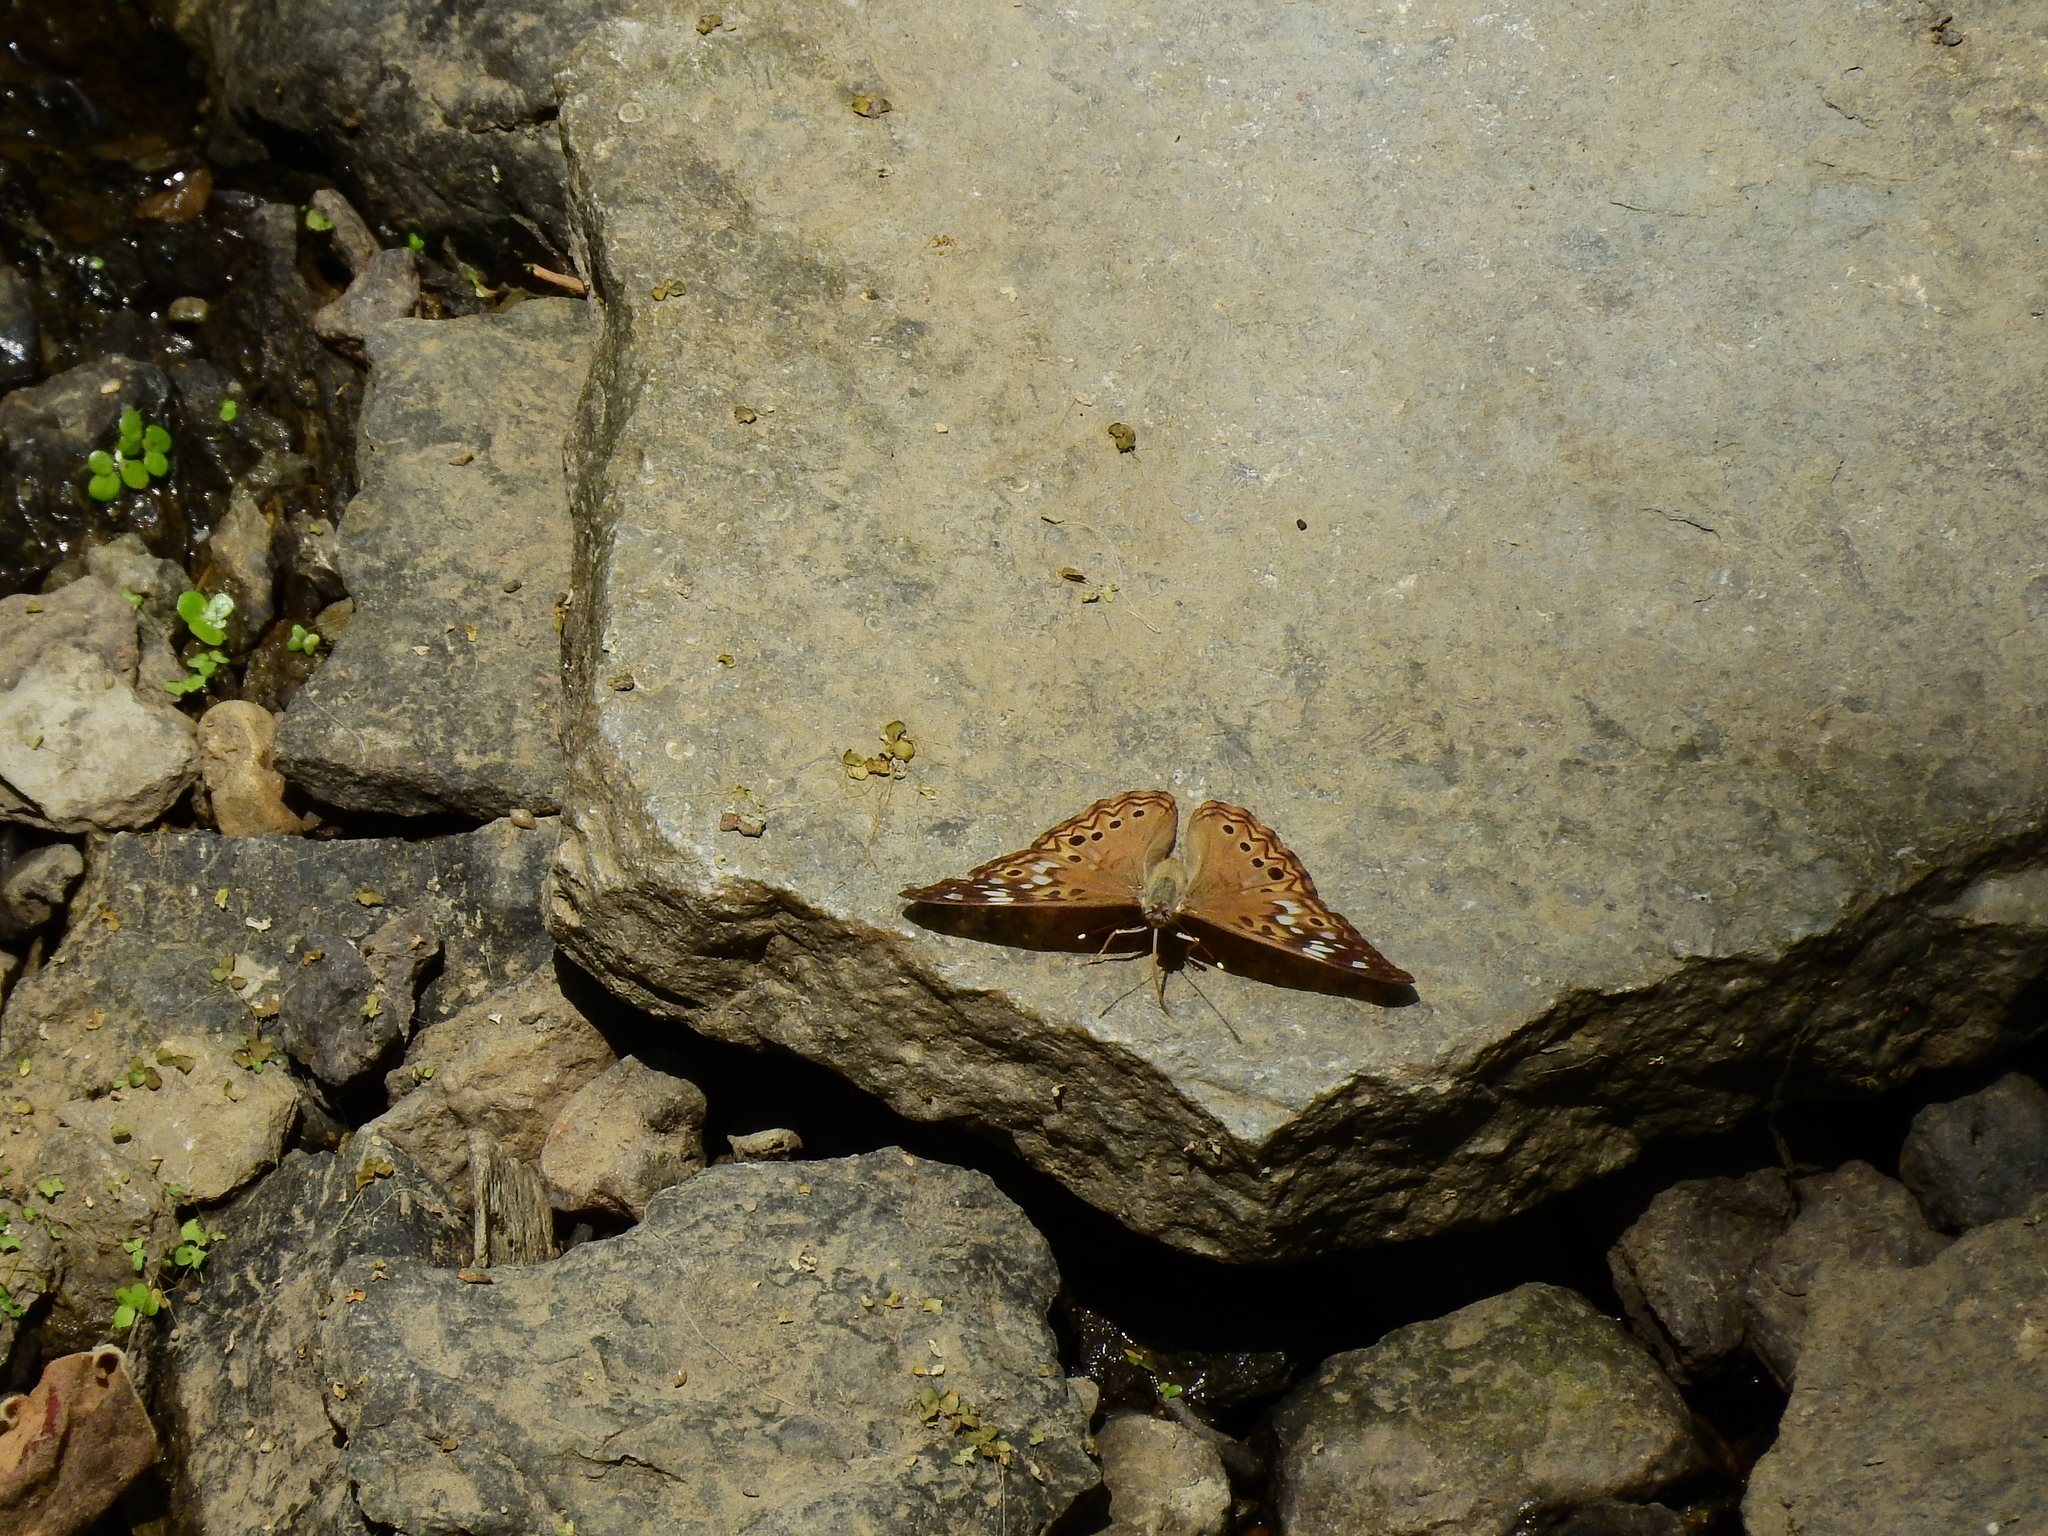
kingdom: Animalia
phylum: Arthropoda
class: Insecta
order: Lepidoptera
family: Nymphalidae
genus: Asterocampa
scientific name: Asterocampa celtis
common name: Hackberry emperor
